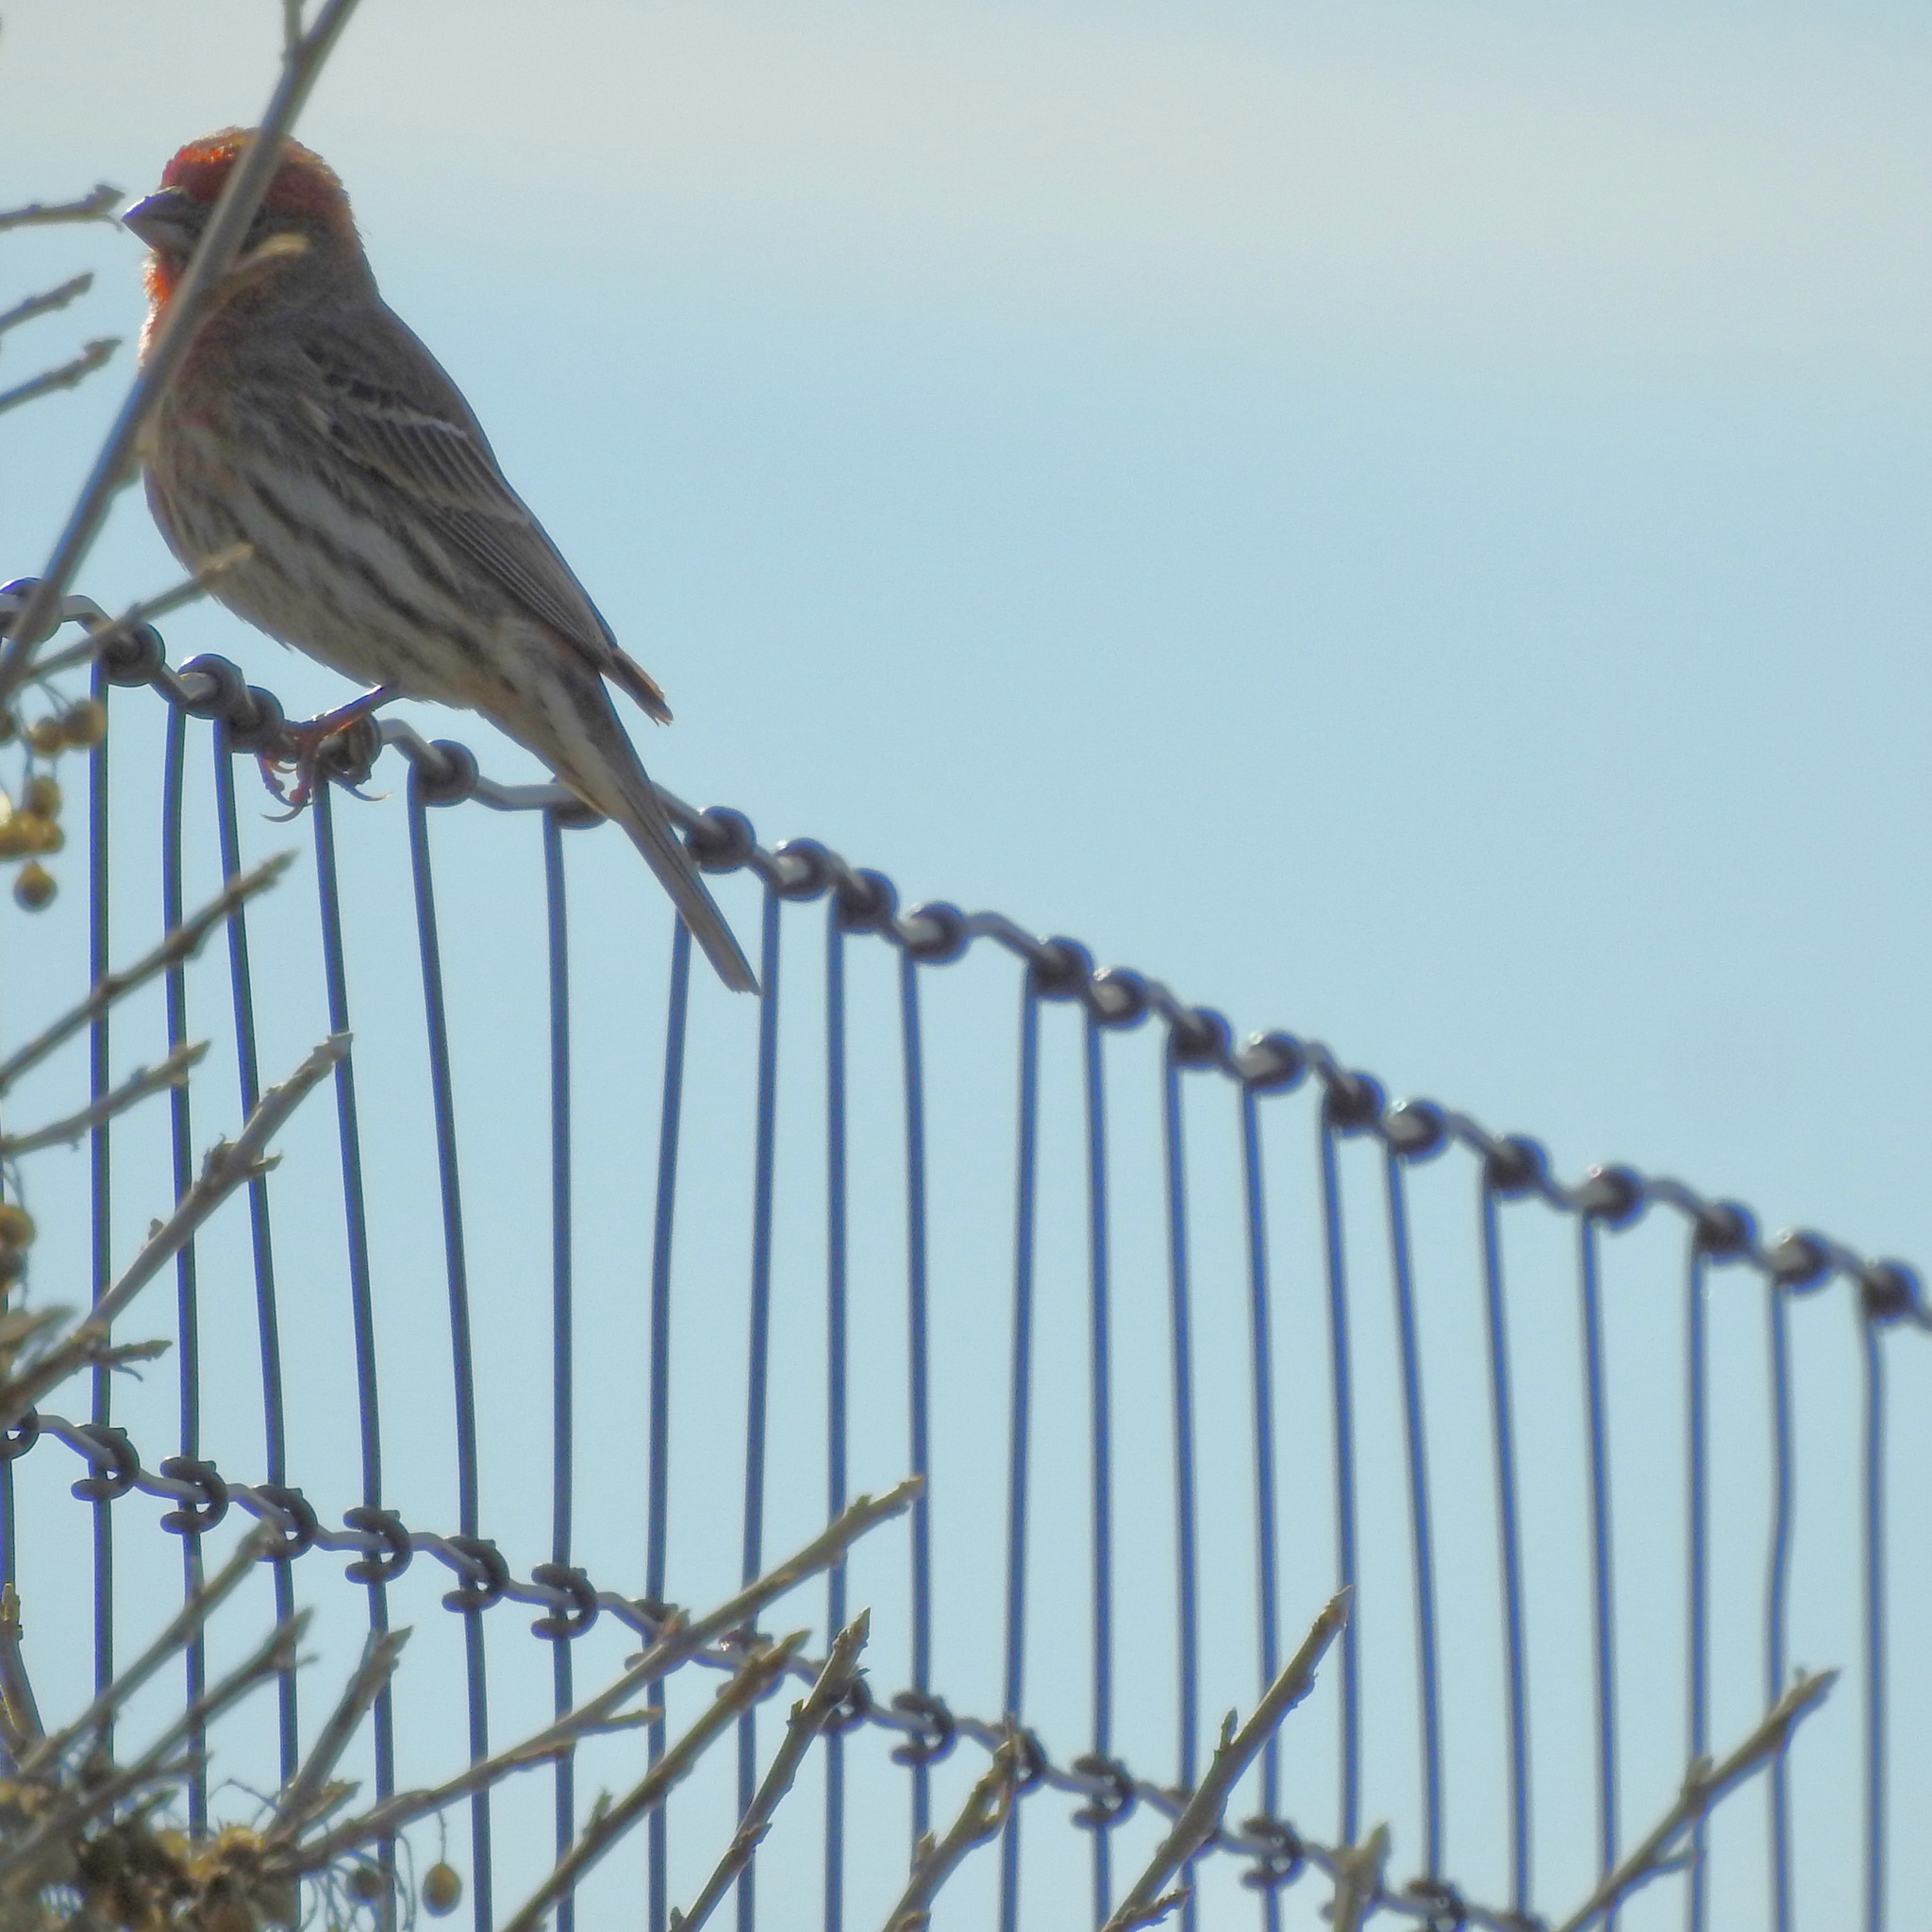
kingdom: Animalia
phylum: Chordata
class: Aves
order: Passeriformes
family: Fringillidae
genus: Haemorhous
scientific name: Haemorhous mexicanus
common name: House finch
